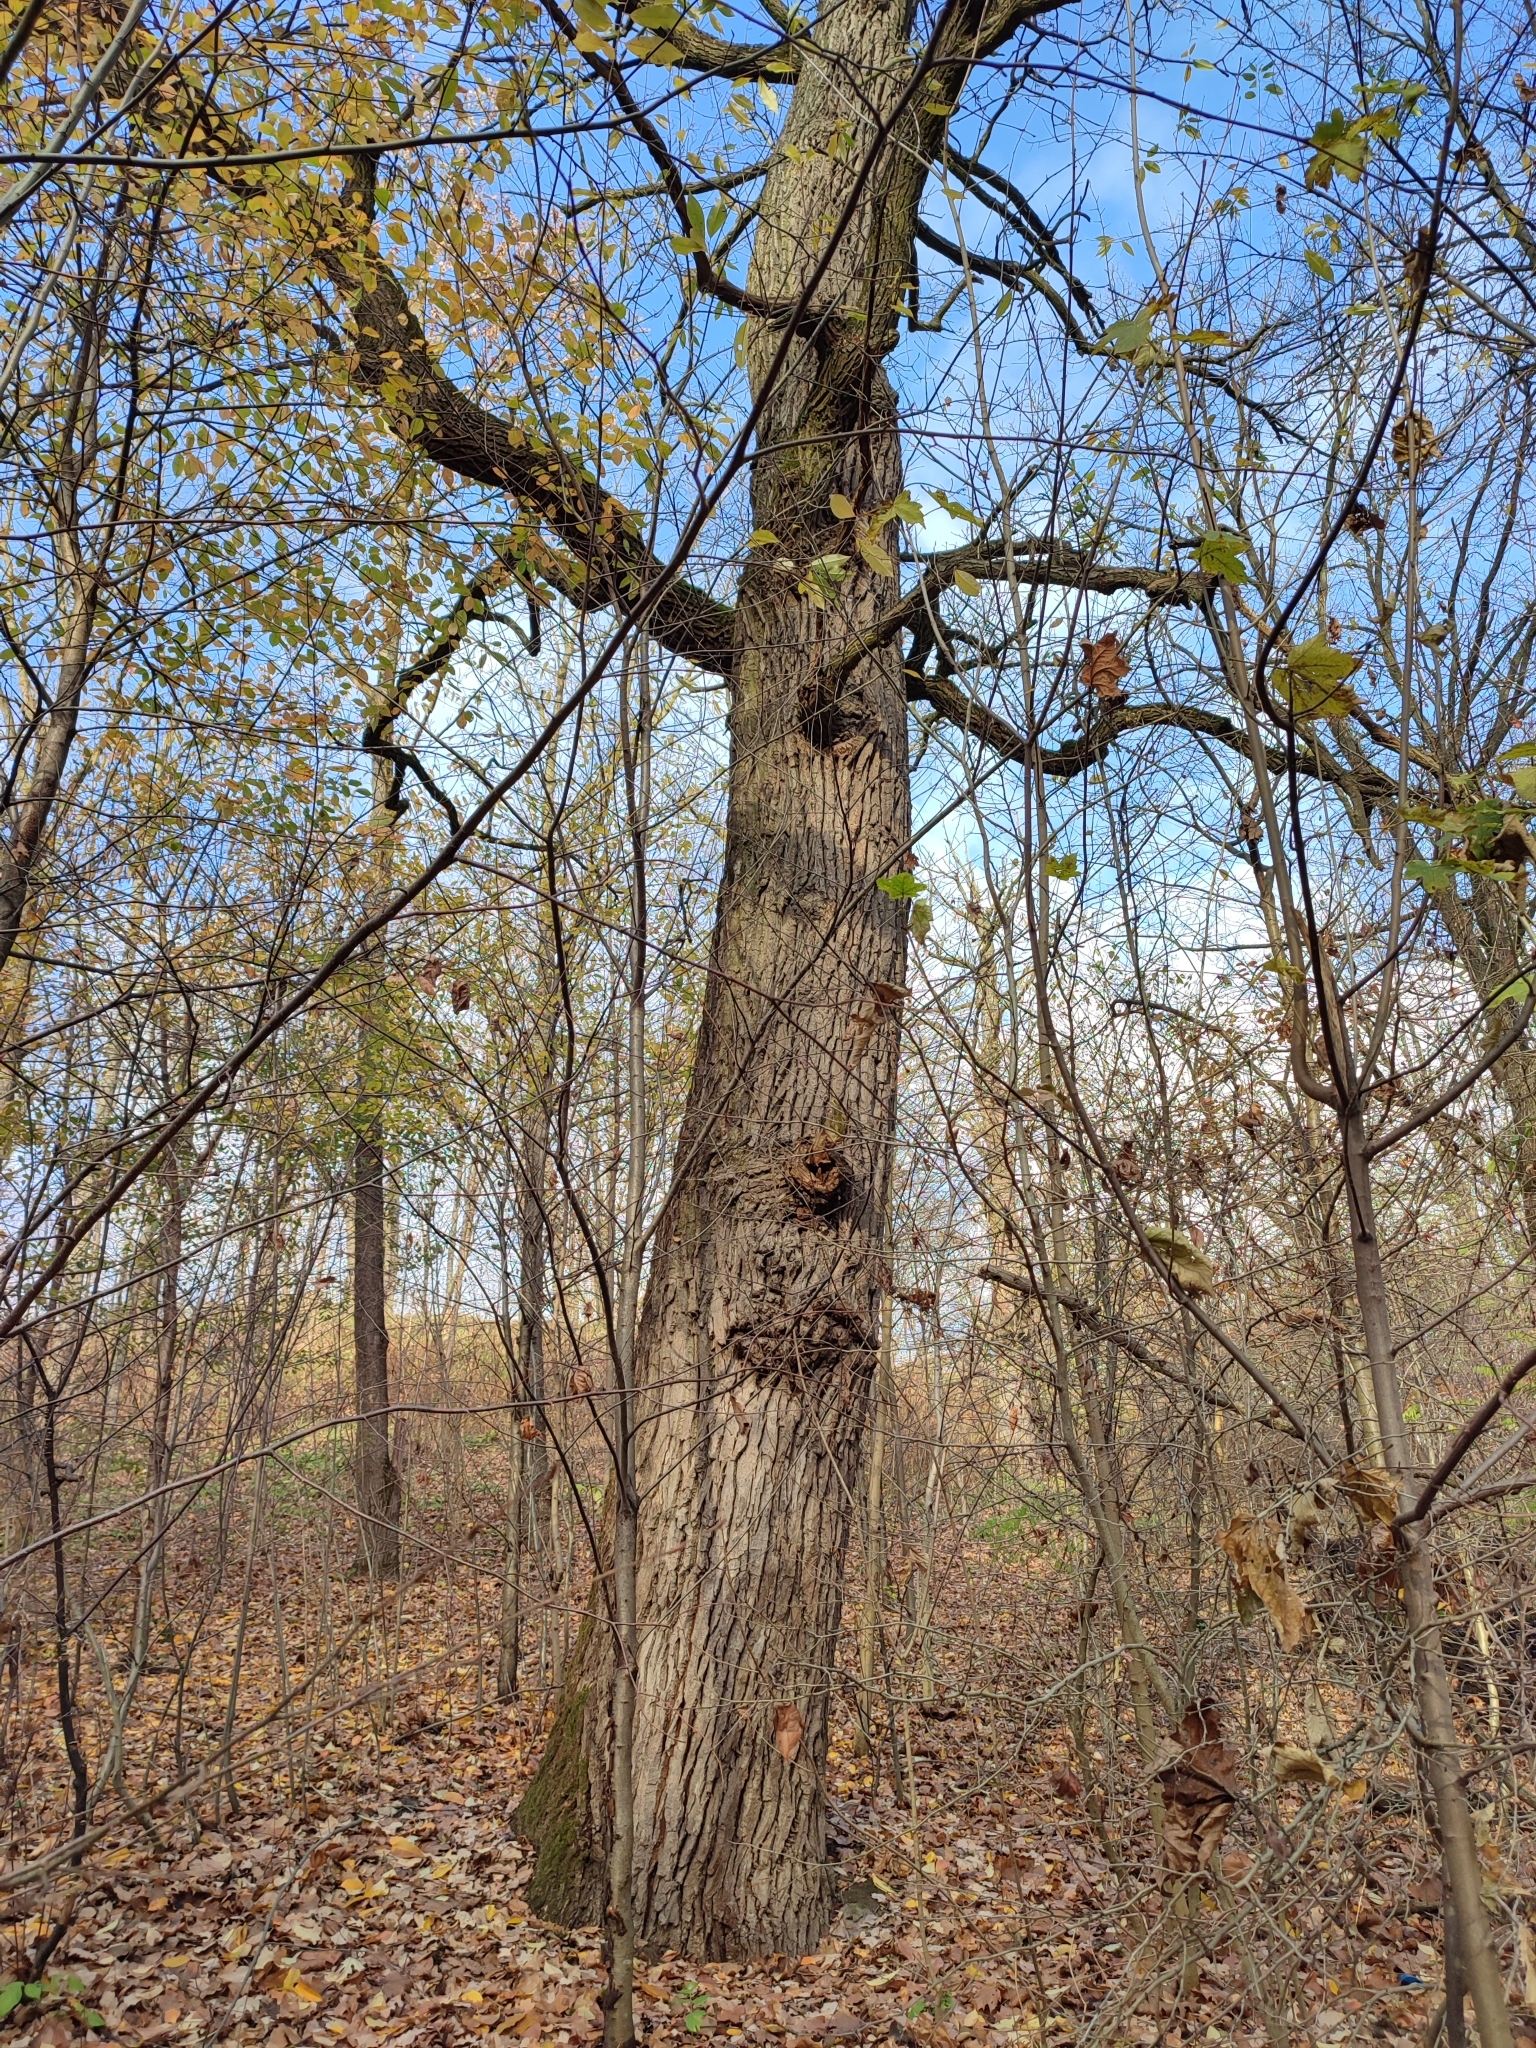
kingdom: Plantae
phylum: Tracheophyta
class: Magnoliopsida
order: Fagales
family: Fagaceae
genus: Quercus
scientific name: Quercus robur
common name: Pedunculate oak
